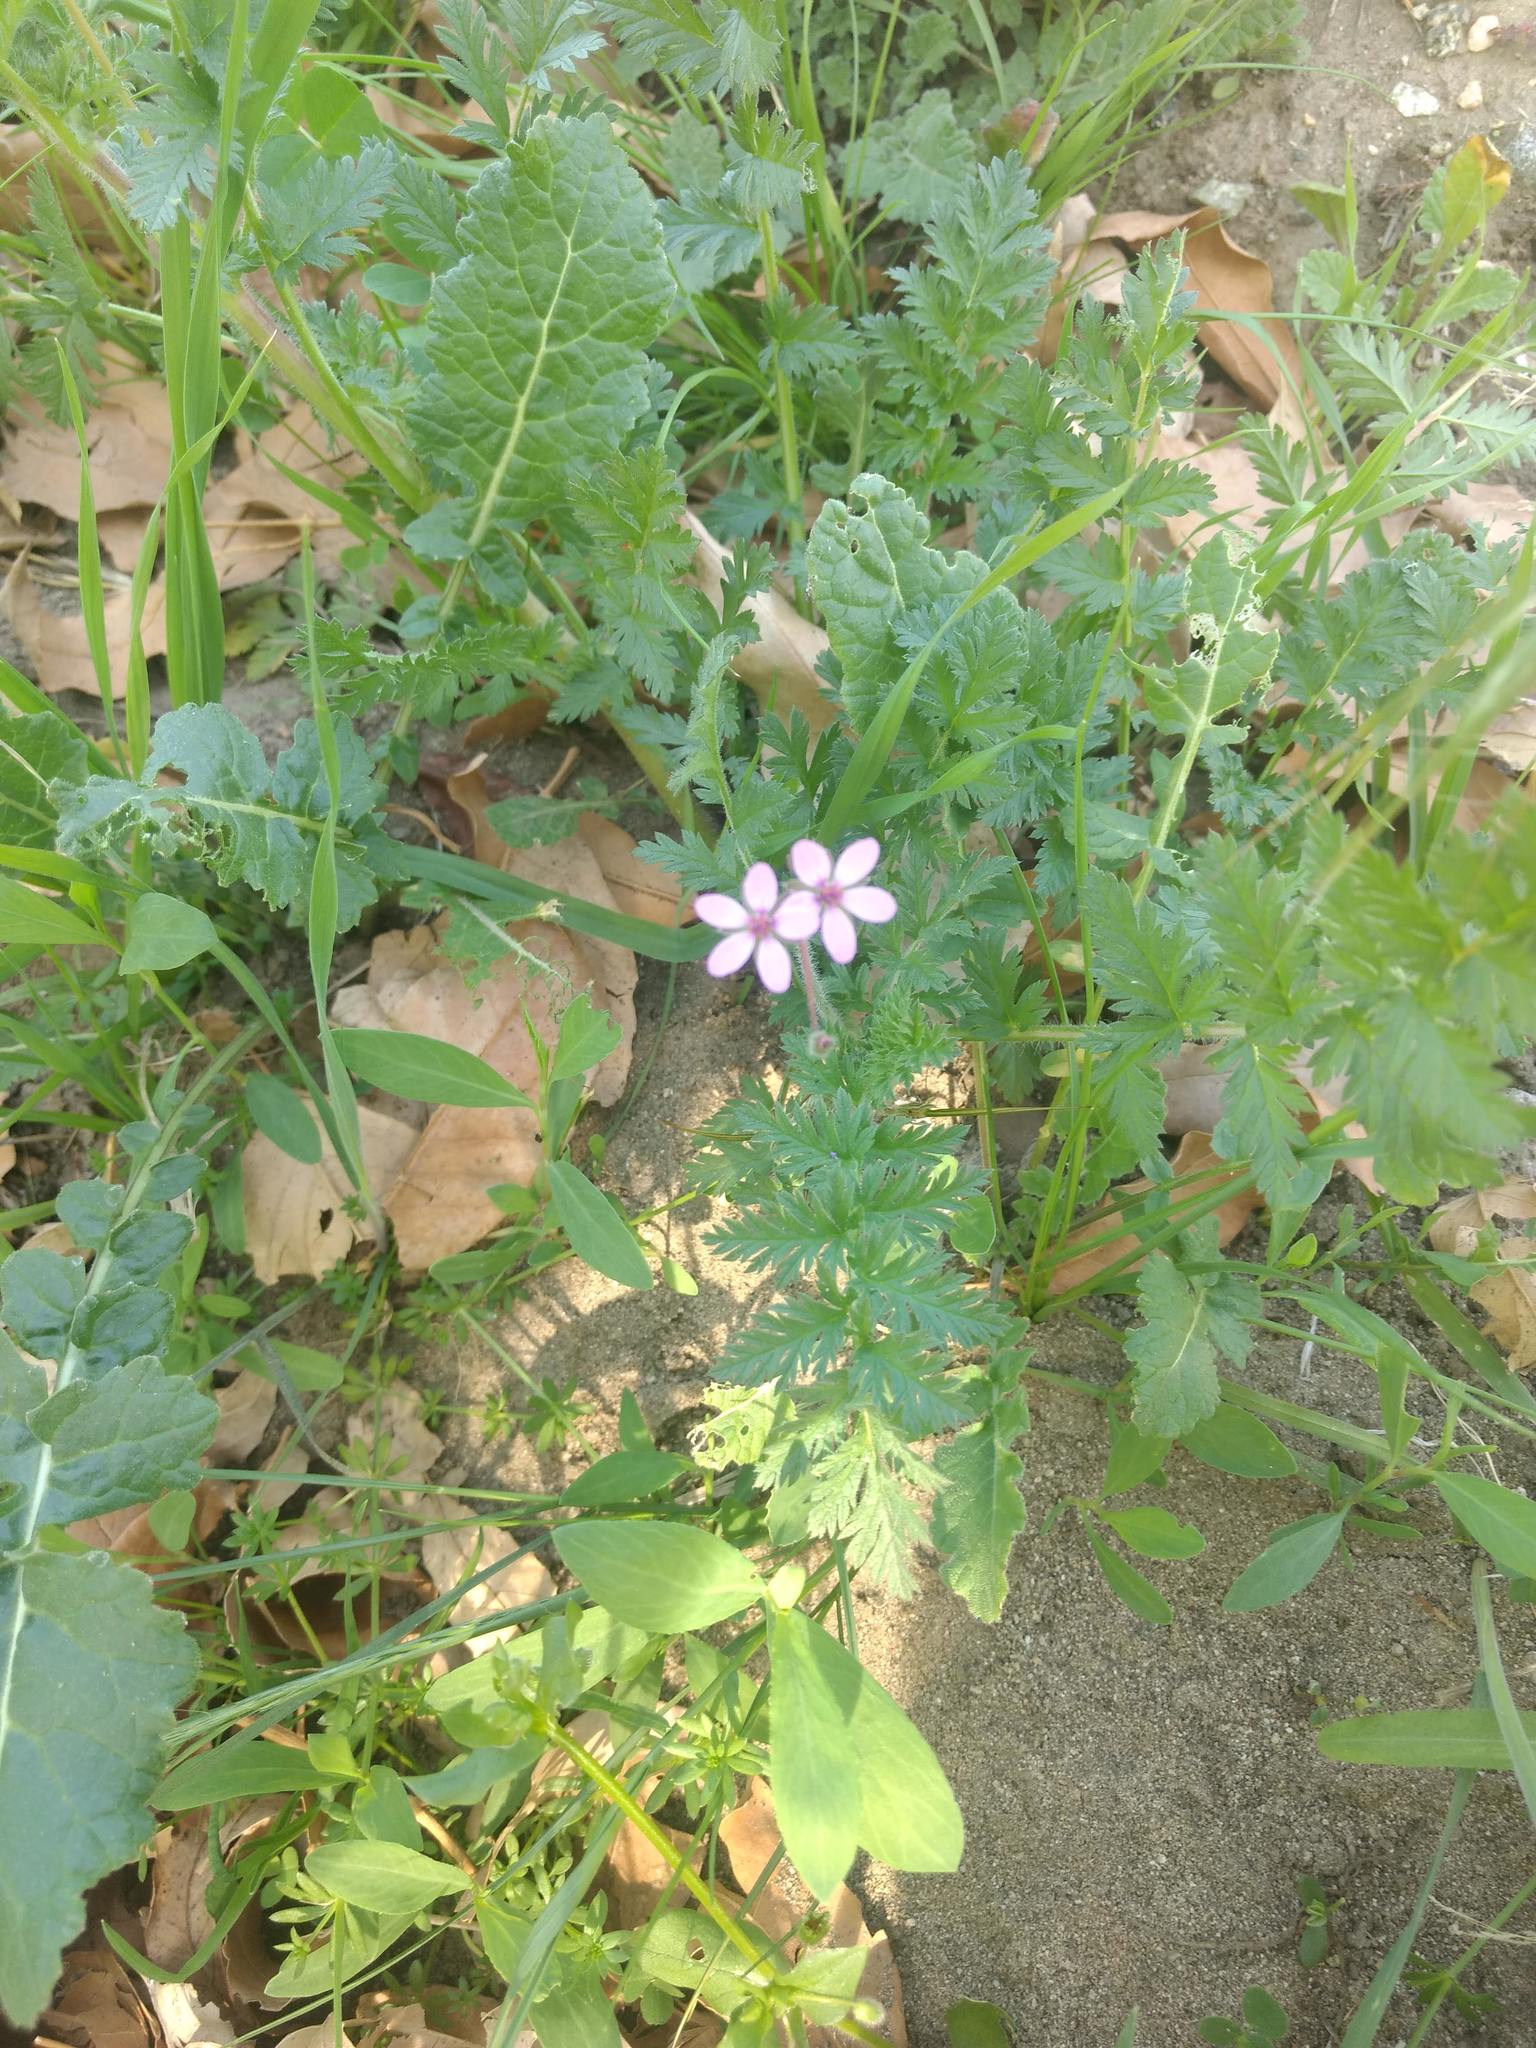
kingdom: Plantae
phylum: Tracheophyta
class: Magnoliopsida
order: Geraniales
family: Geraniaceae
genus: Erodium
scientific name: Erodium cicutarium
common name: Common stork's-bill
